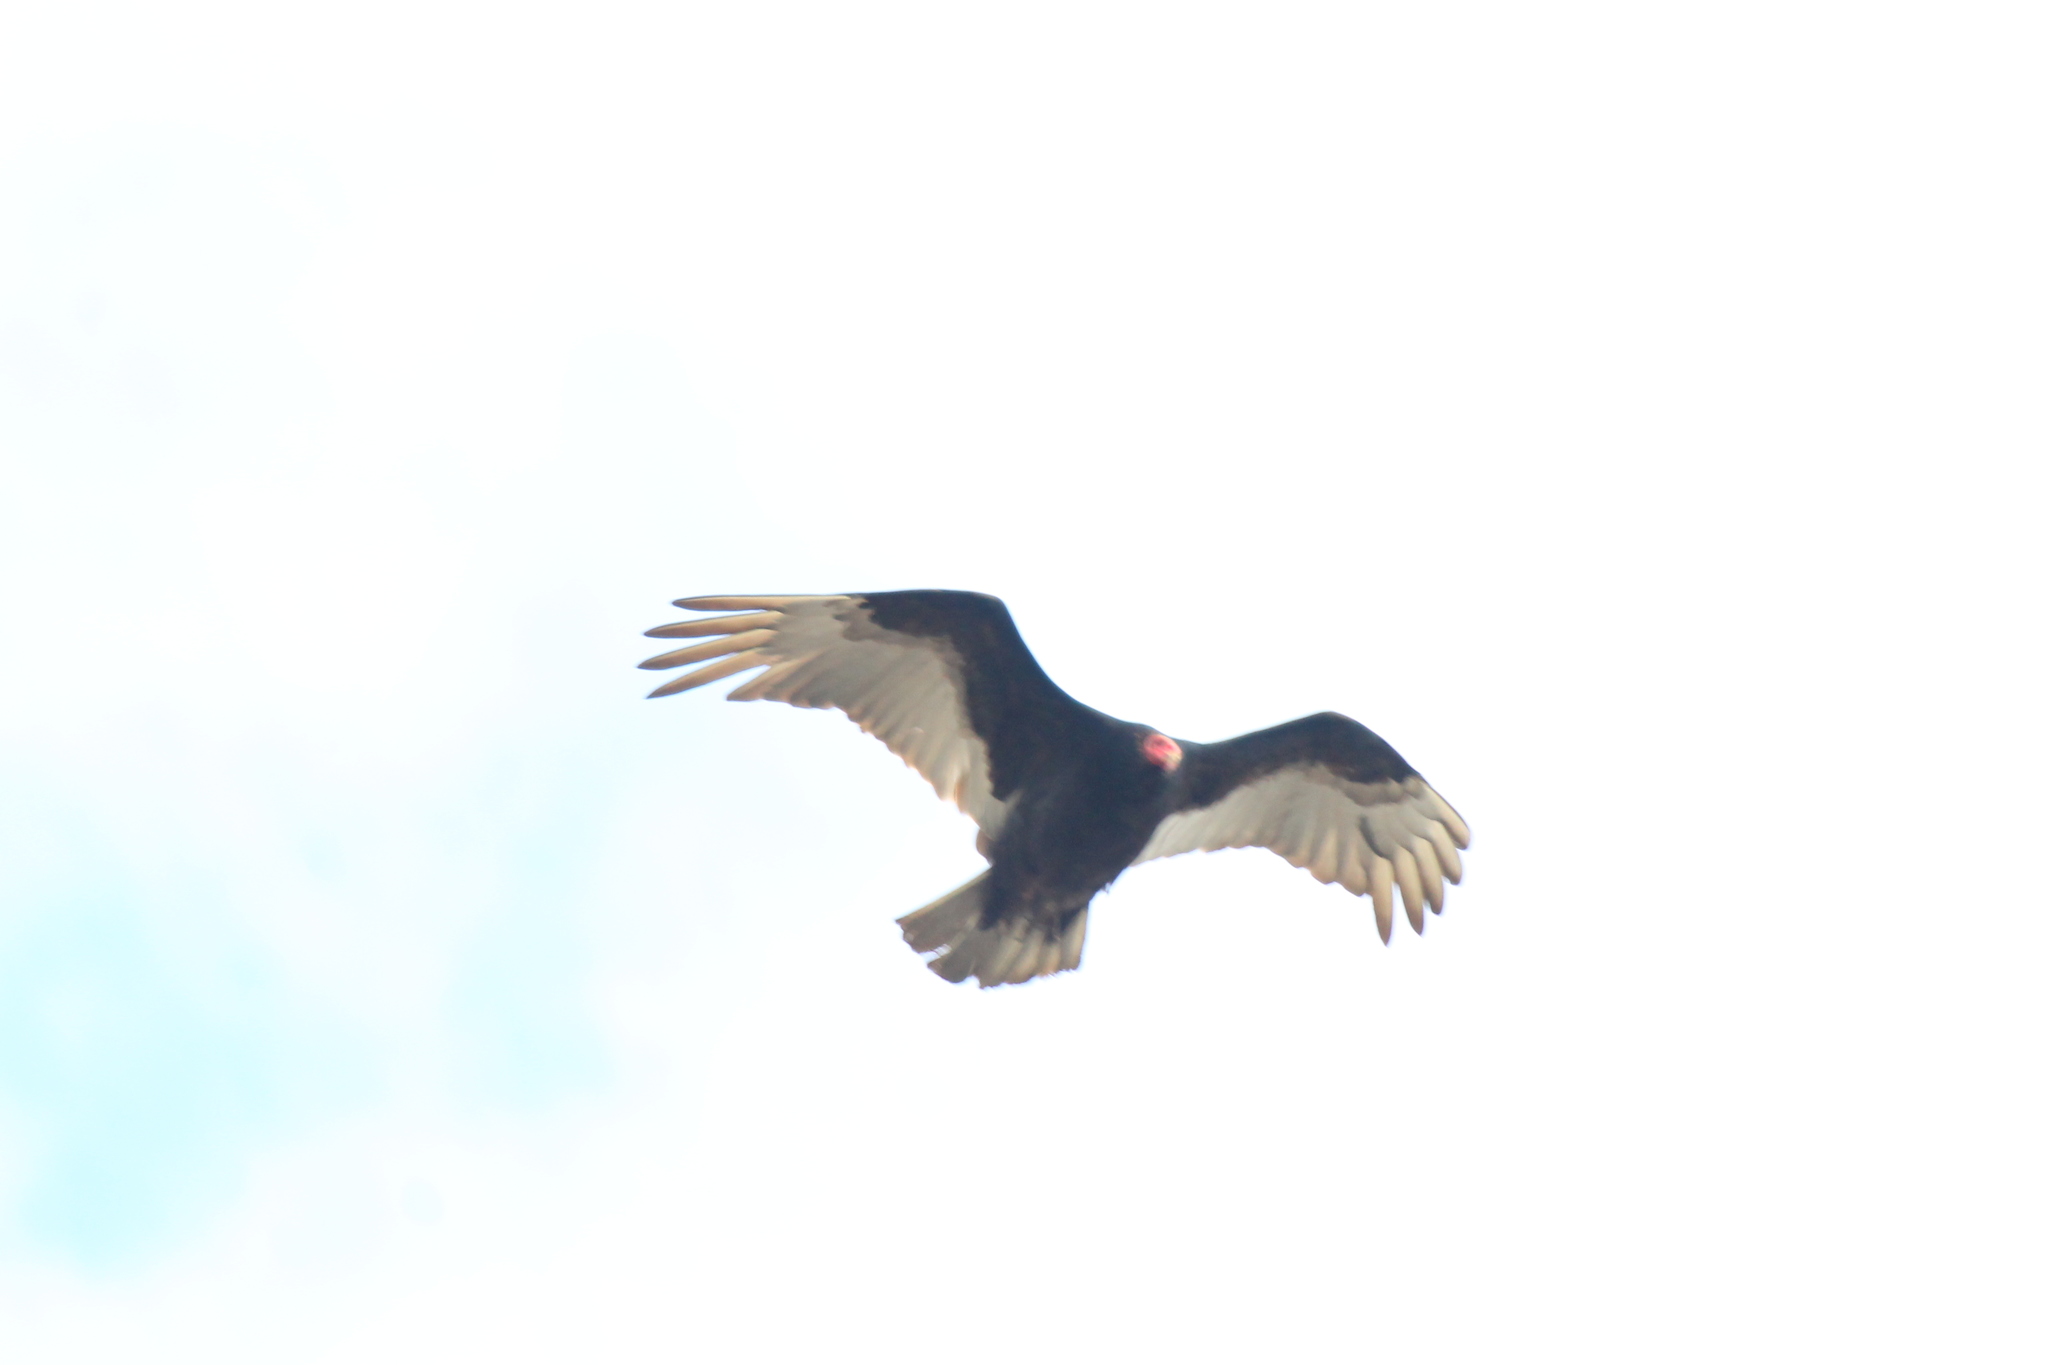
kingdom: Animalia
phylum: Chordata
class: Aves
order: Accipitriformes
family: Cathartidae
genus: Cathartes
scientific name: Cathartes aura
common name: Turkey vulture
